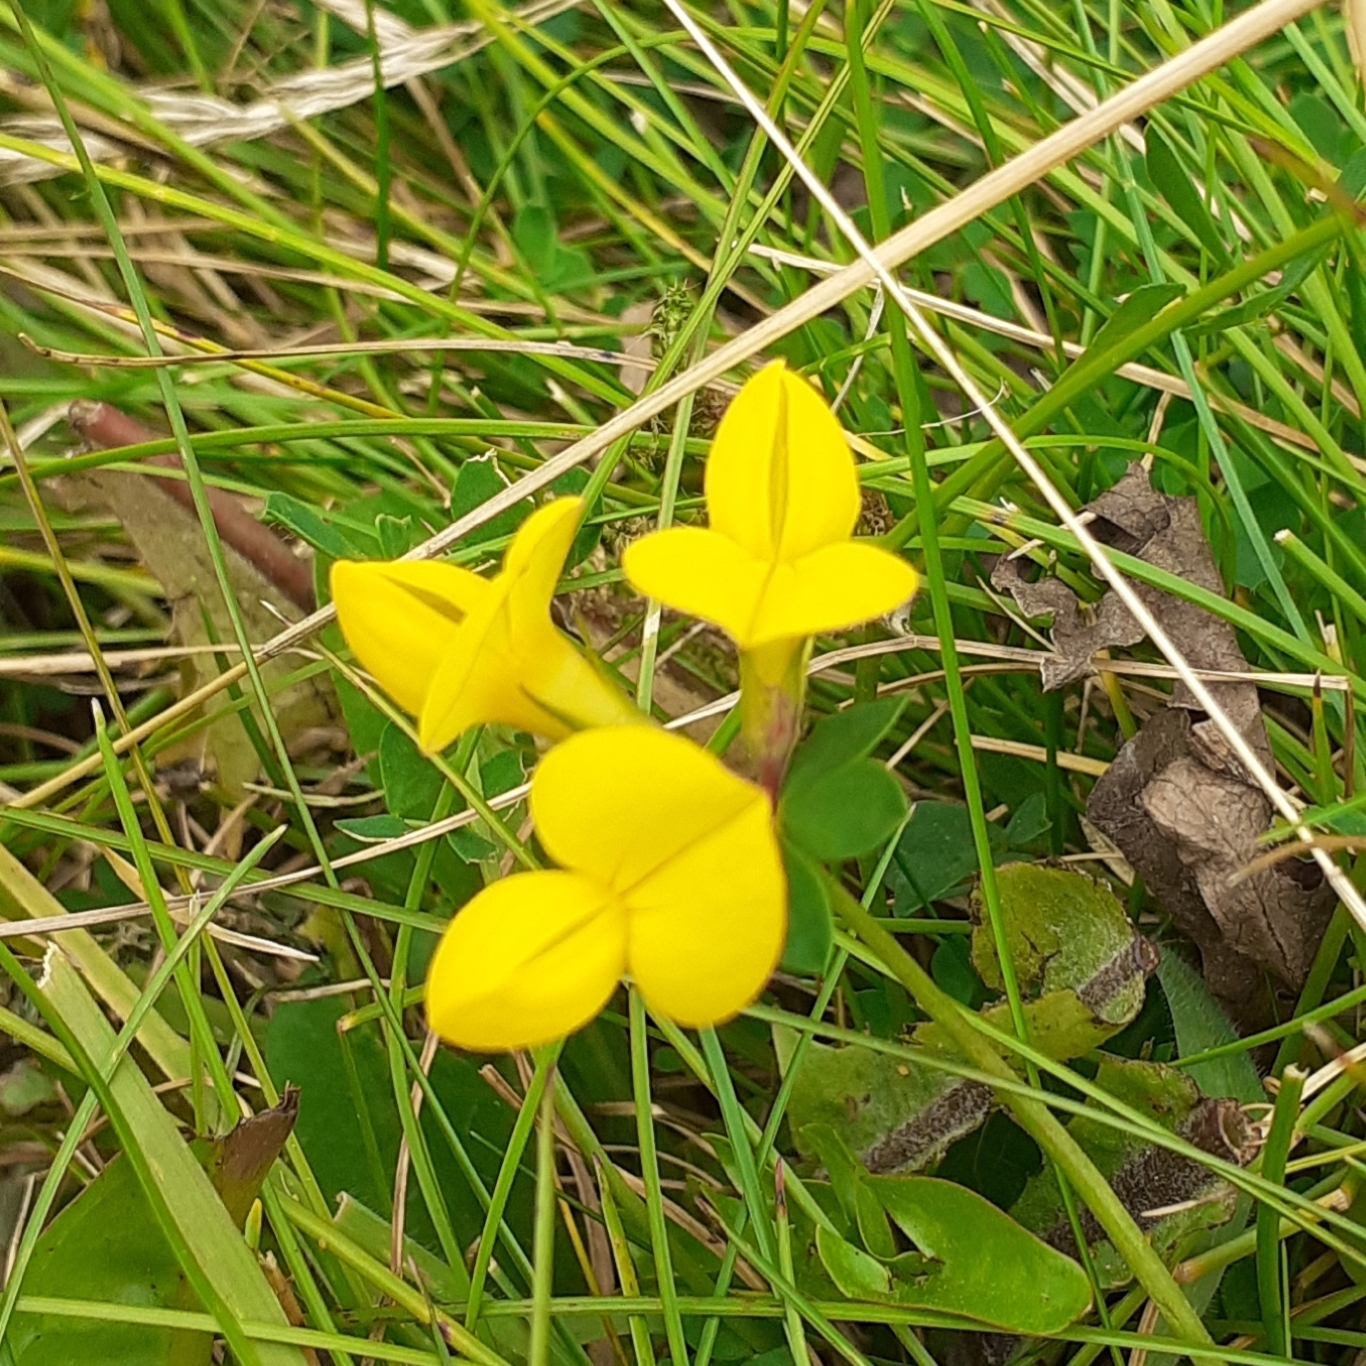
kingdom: Plantae
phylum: Tracheophyta
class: Magnoliopsida
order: Fabales
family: Fabaceae
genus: Lotus
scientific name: Lotus corniculatus
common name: Common bird's-foot-trefoil
